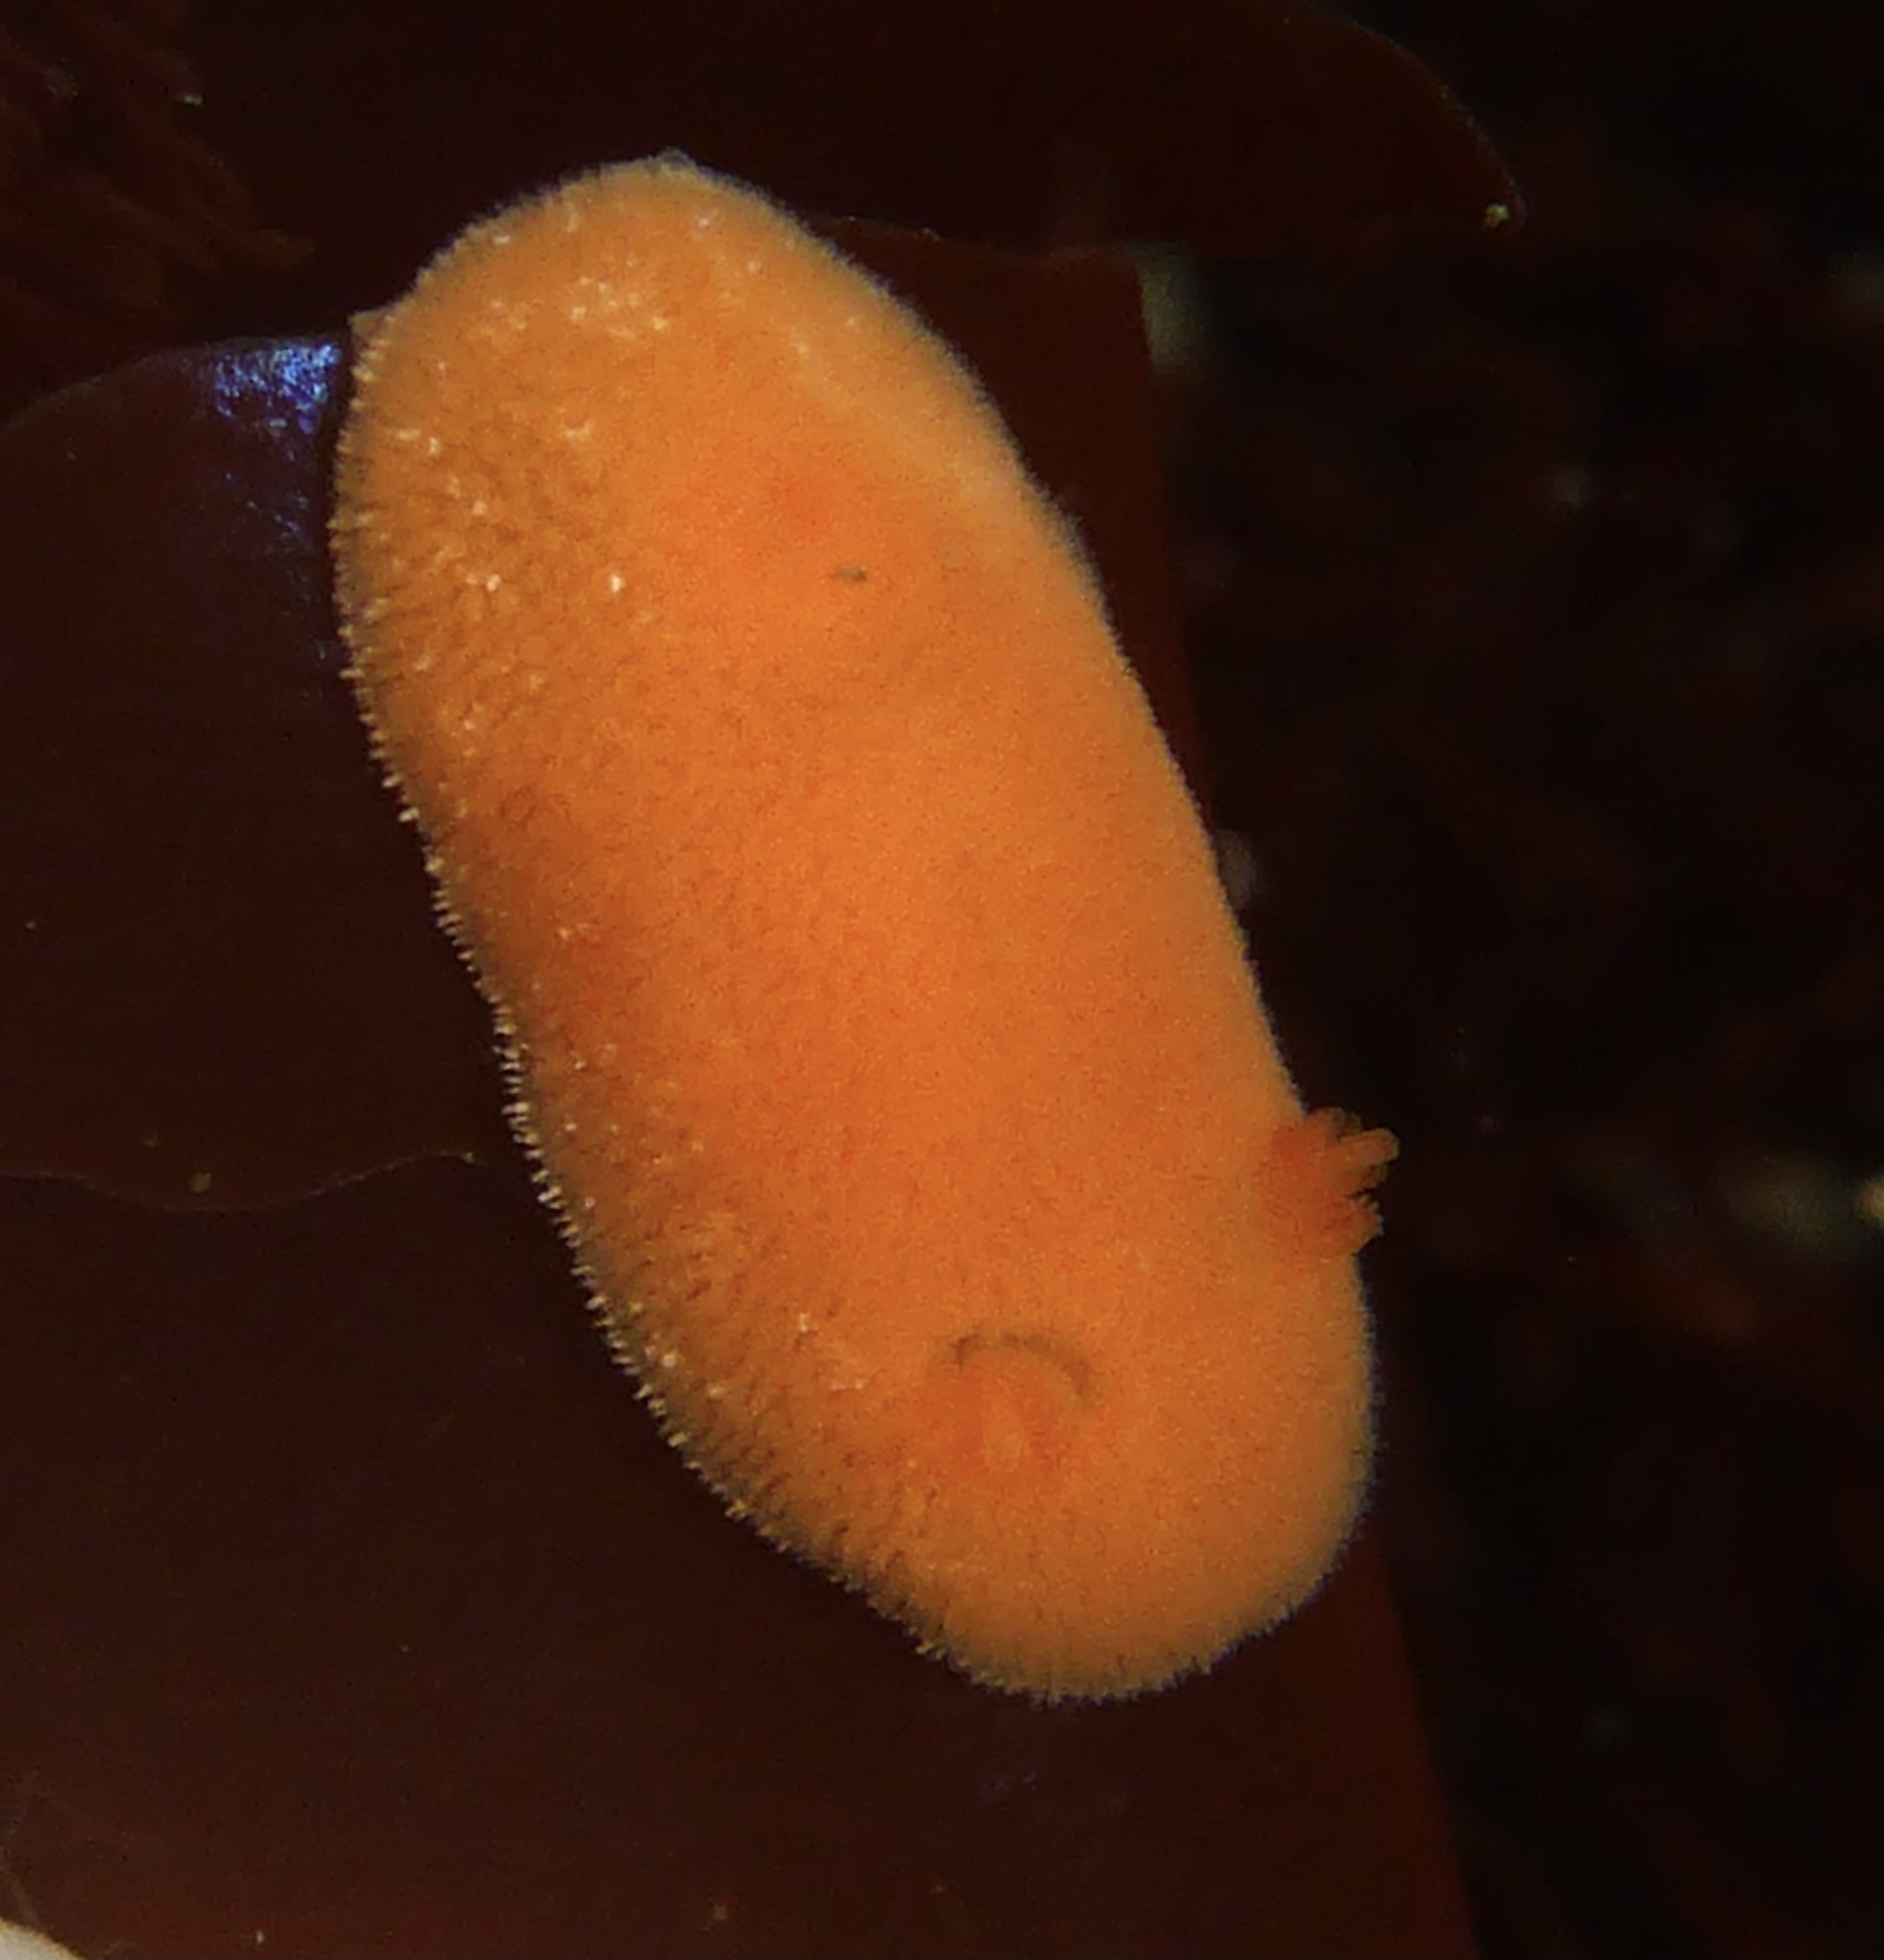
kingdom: Animalia
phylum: Mollusca
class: Gastropoda
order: Nudibranchia
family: Discodorididae
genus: Rostanga
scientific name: Rostanga pulchra
